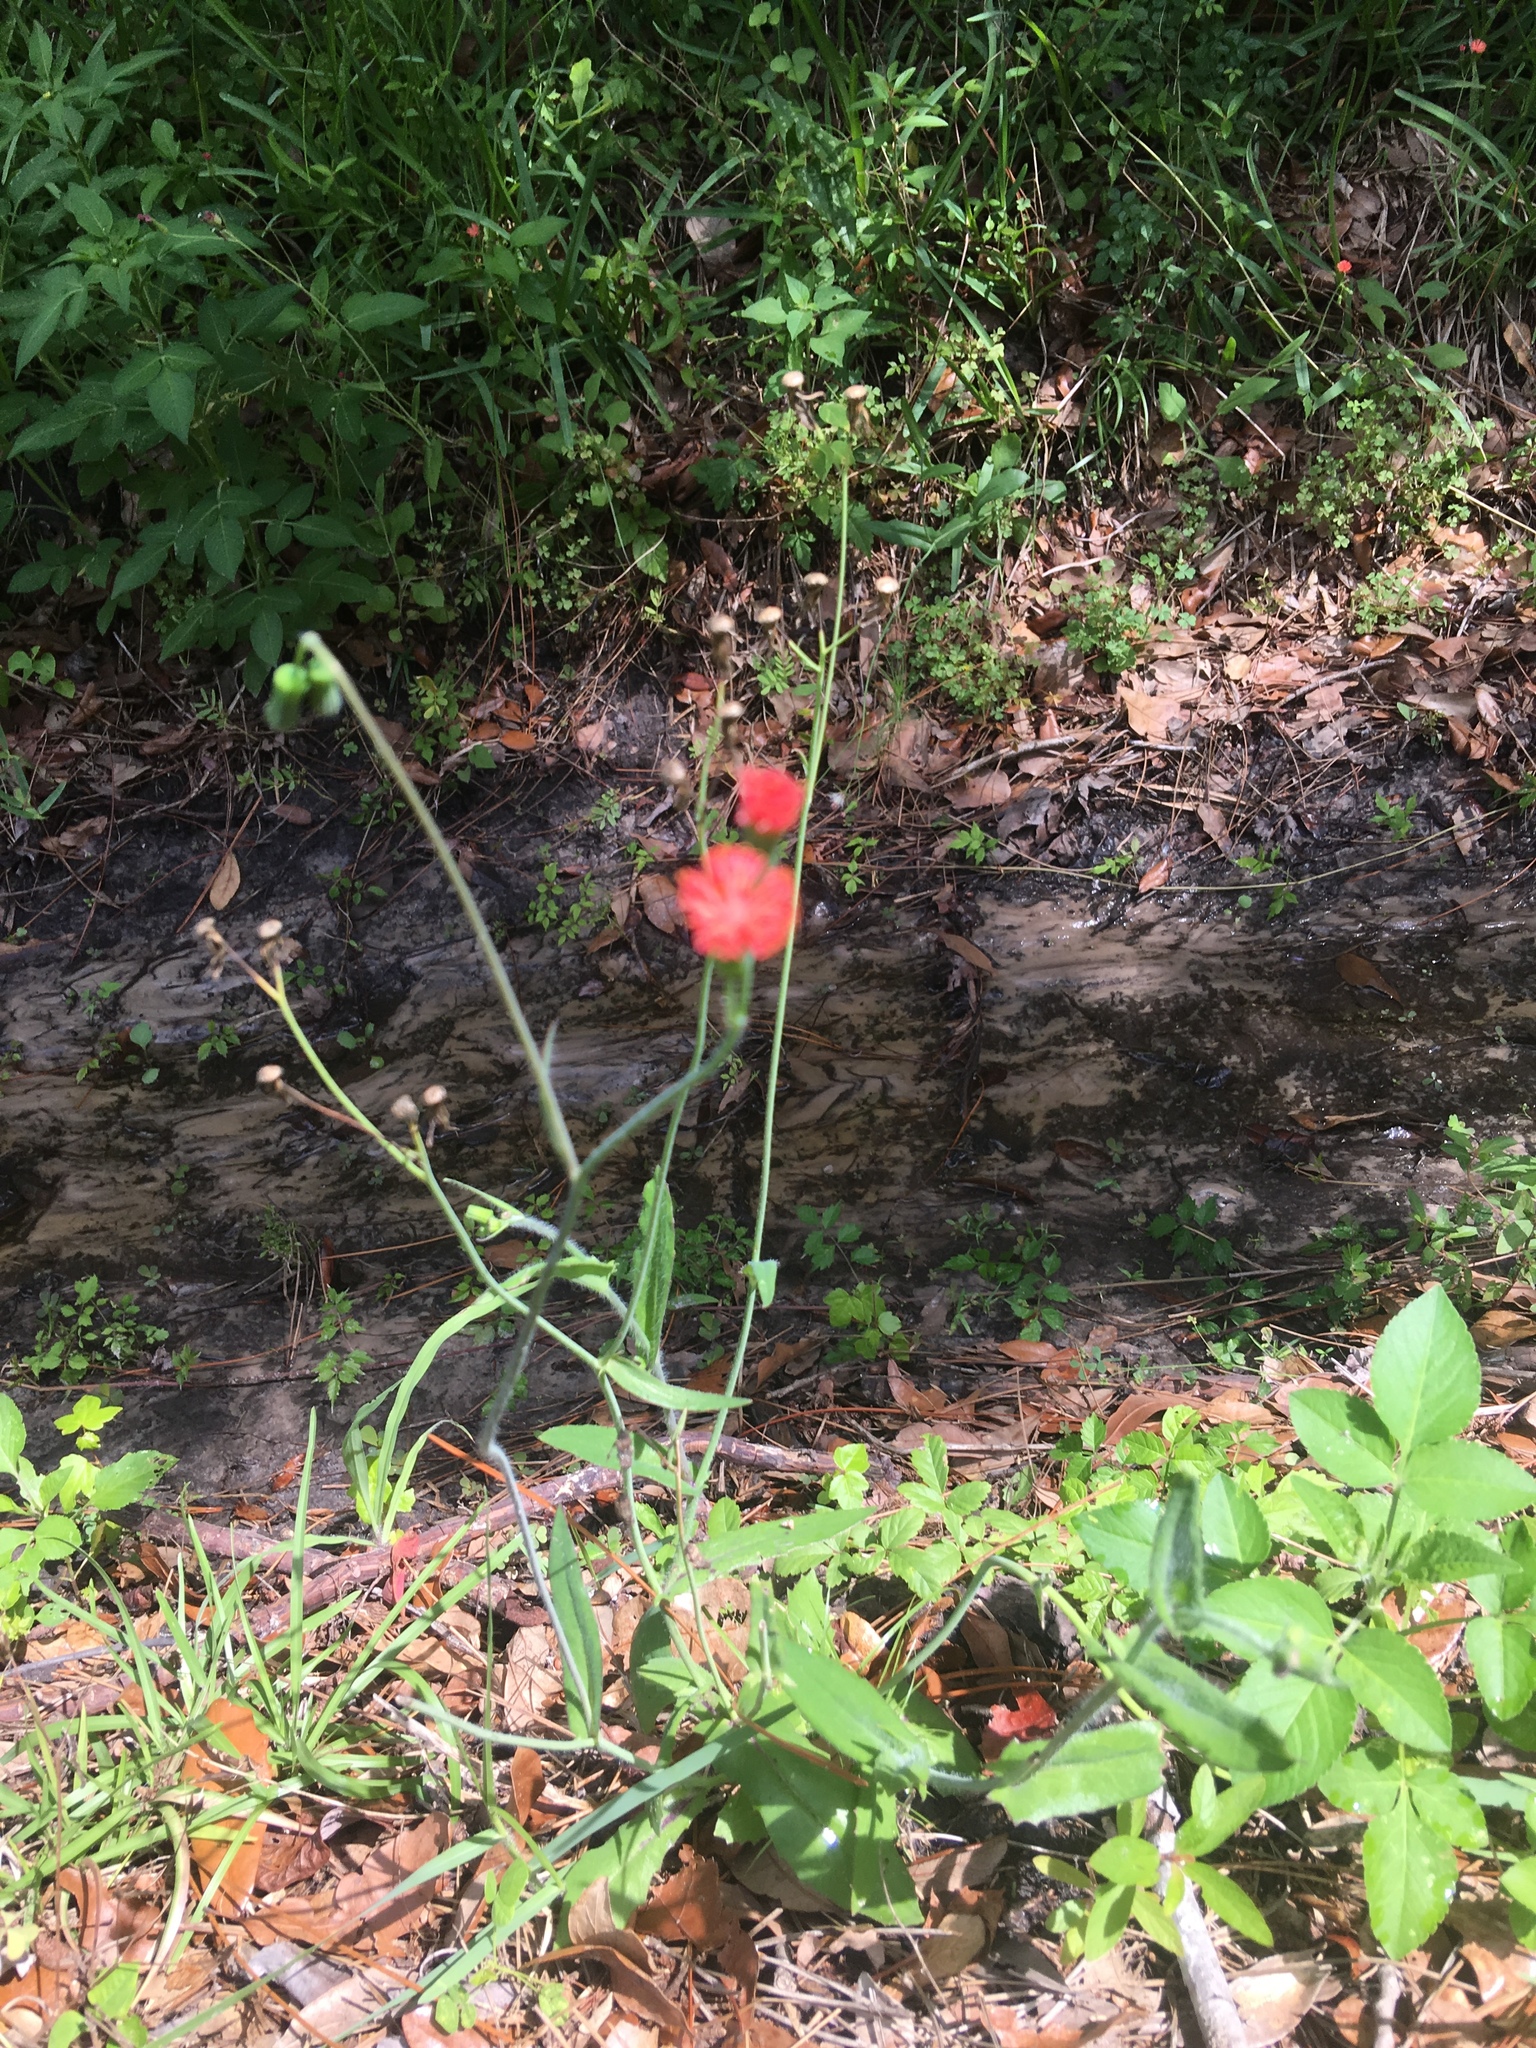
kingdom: Plantae
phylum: Tracheophyta
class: Magnoliopsida
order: Asterales
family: Asteraceae
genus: Emilia
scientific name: Emilia fosbergii
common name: Florida tasselflower
